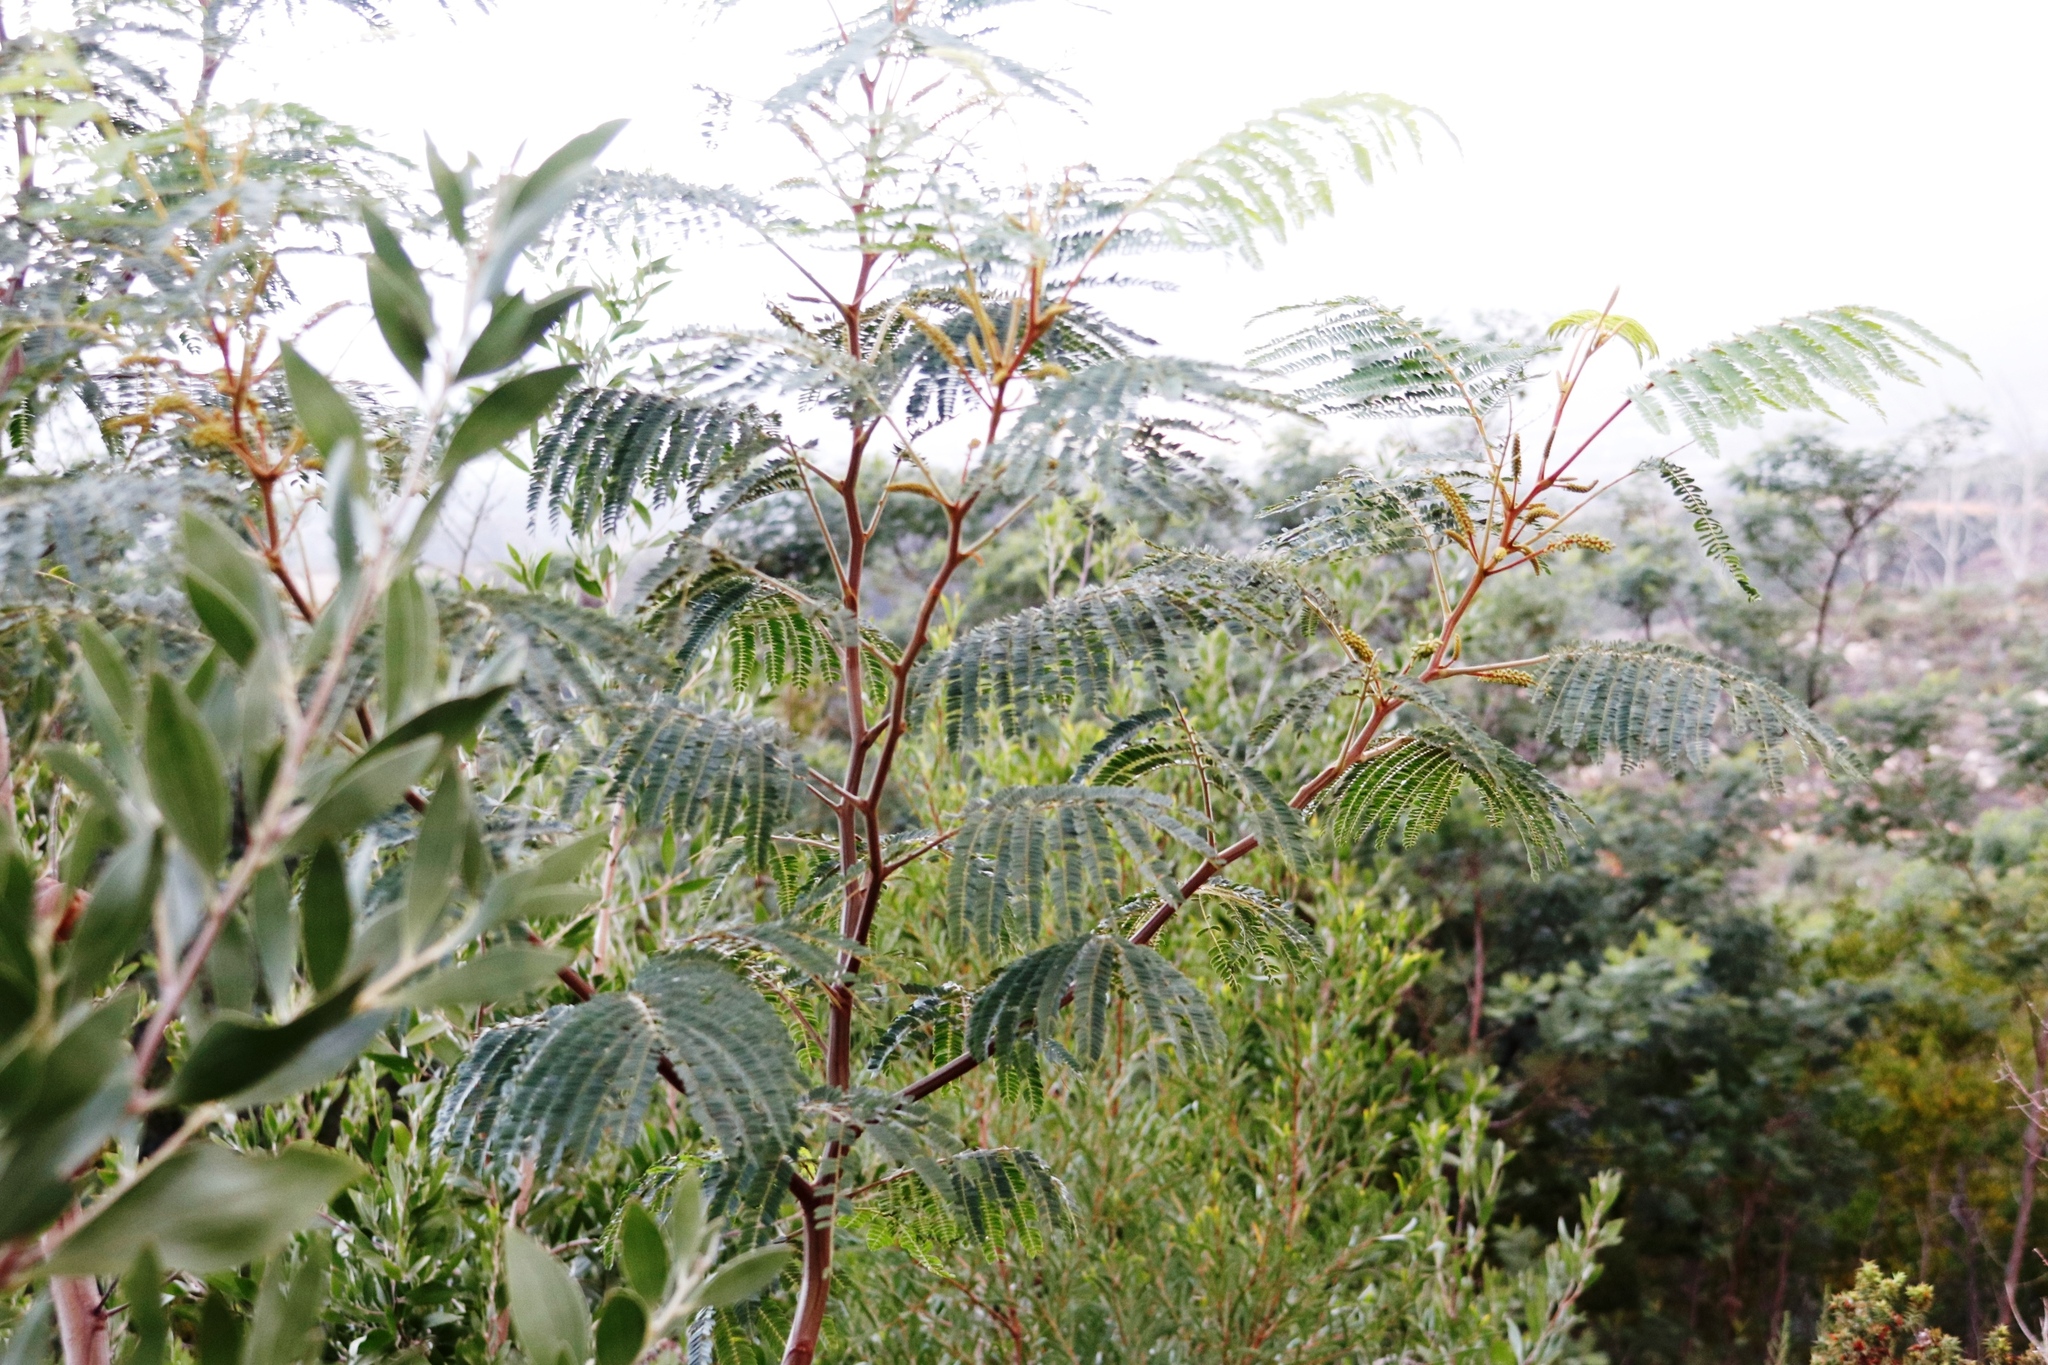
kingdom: Plantae
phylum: Tracheophyta
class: Magnoliopsida
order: Fabales
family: Fabaceae
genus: Paraserianthes
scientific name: Paraserianthes lophantha
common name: Plume albizia
